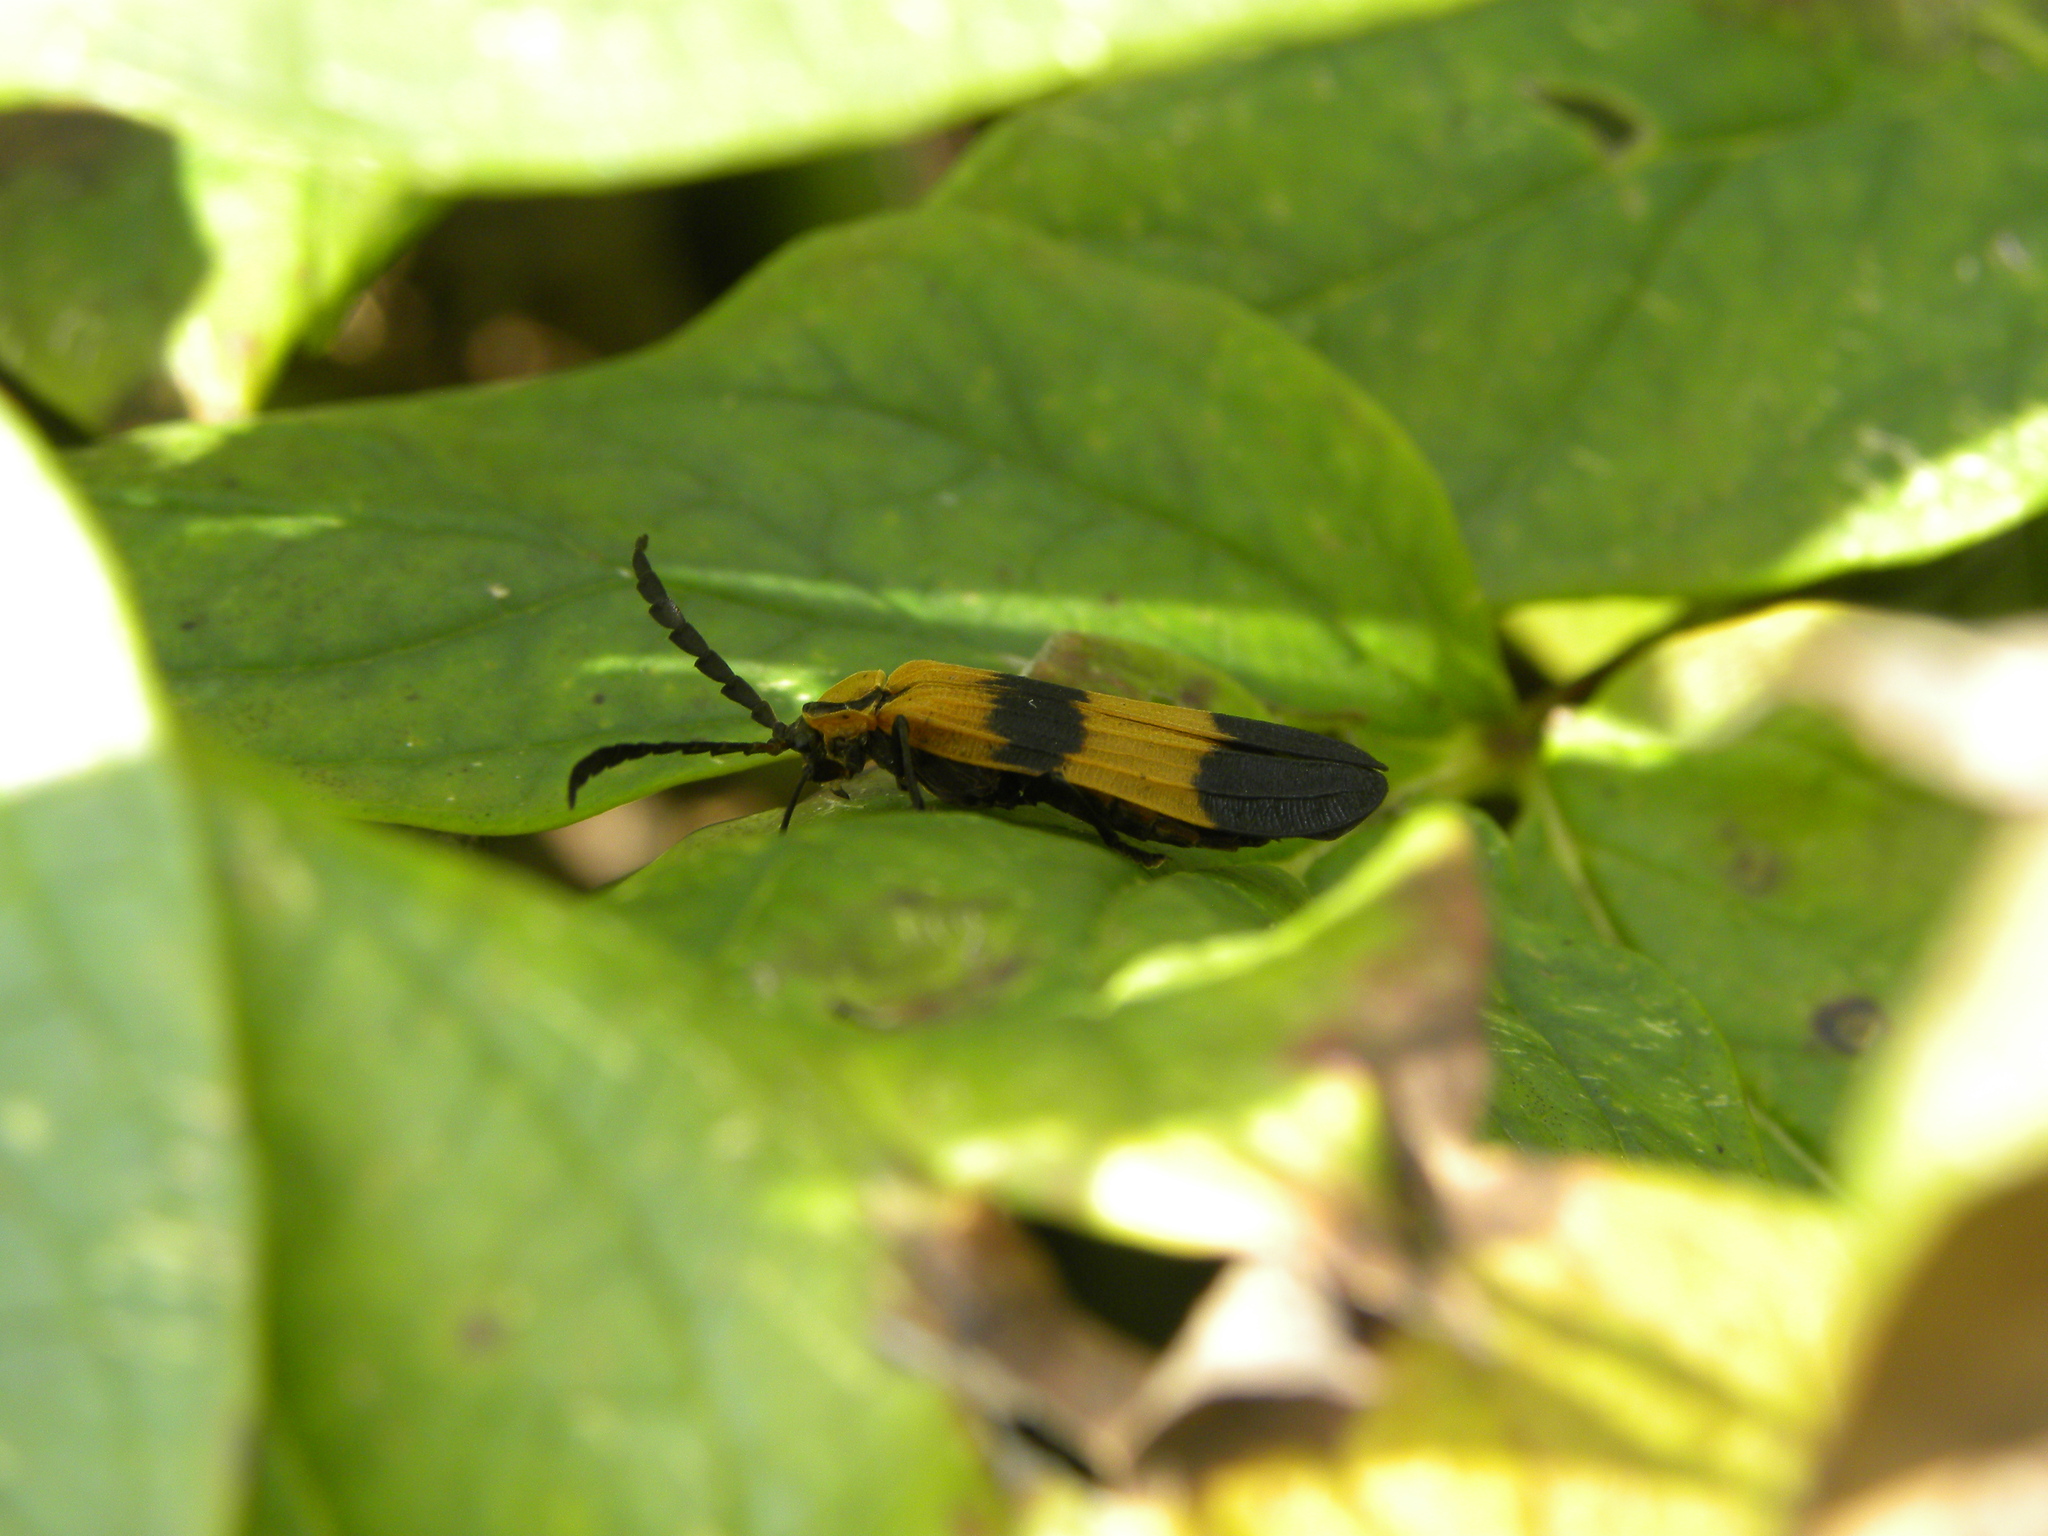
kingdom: Animalia
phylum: Arthropoda
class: Insecta
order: Coleoptera
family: Lycidae
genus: Calopteron
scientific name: Calopteron reticulatum
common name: Banded net-winged beetle
